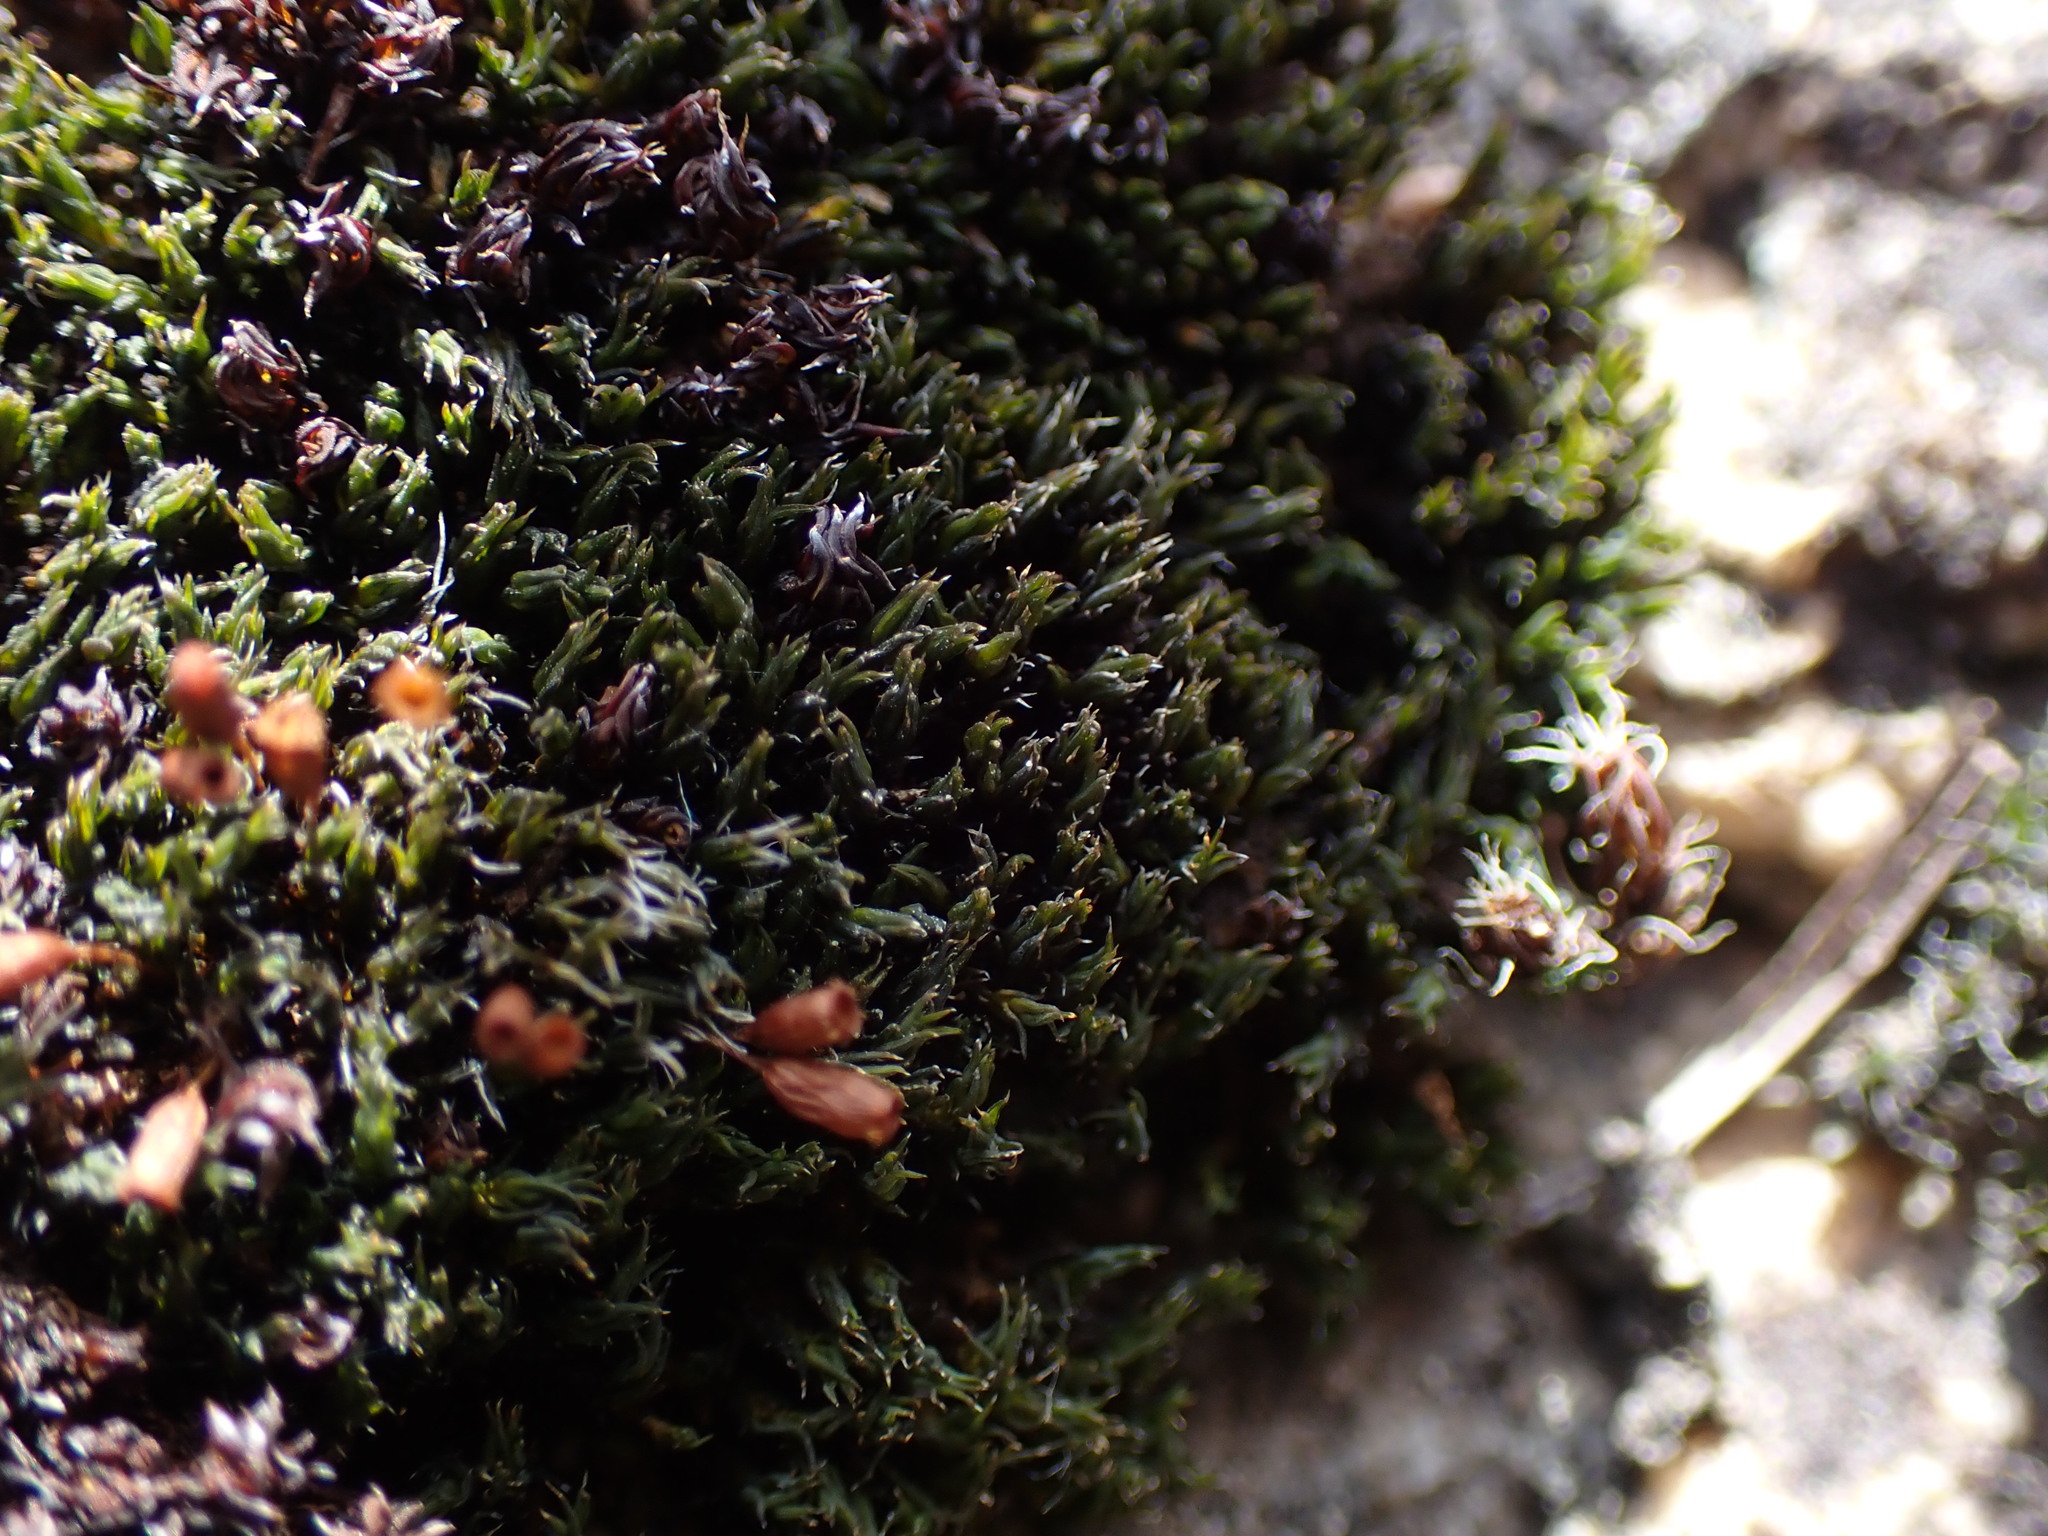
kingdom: Plantae
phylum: Bryophyta
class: Bryopsida
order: Grimmiales
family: Grimmiaceae
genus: Grimmia
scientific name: Grimmia ovalis
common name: Oval grimmia
